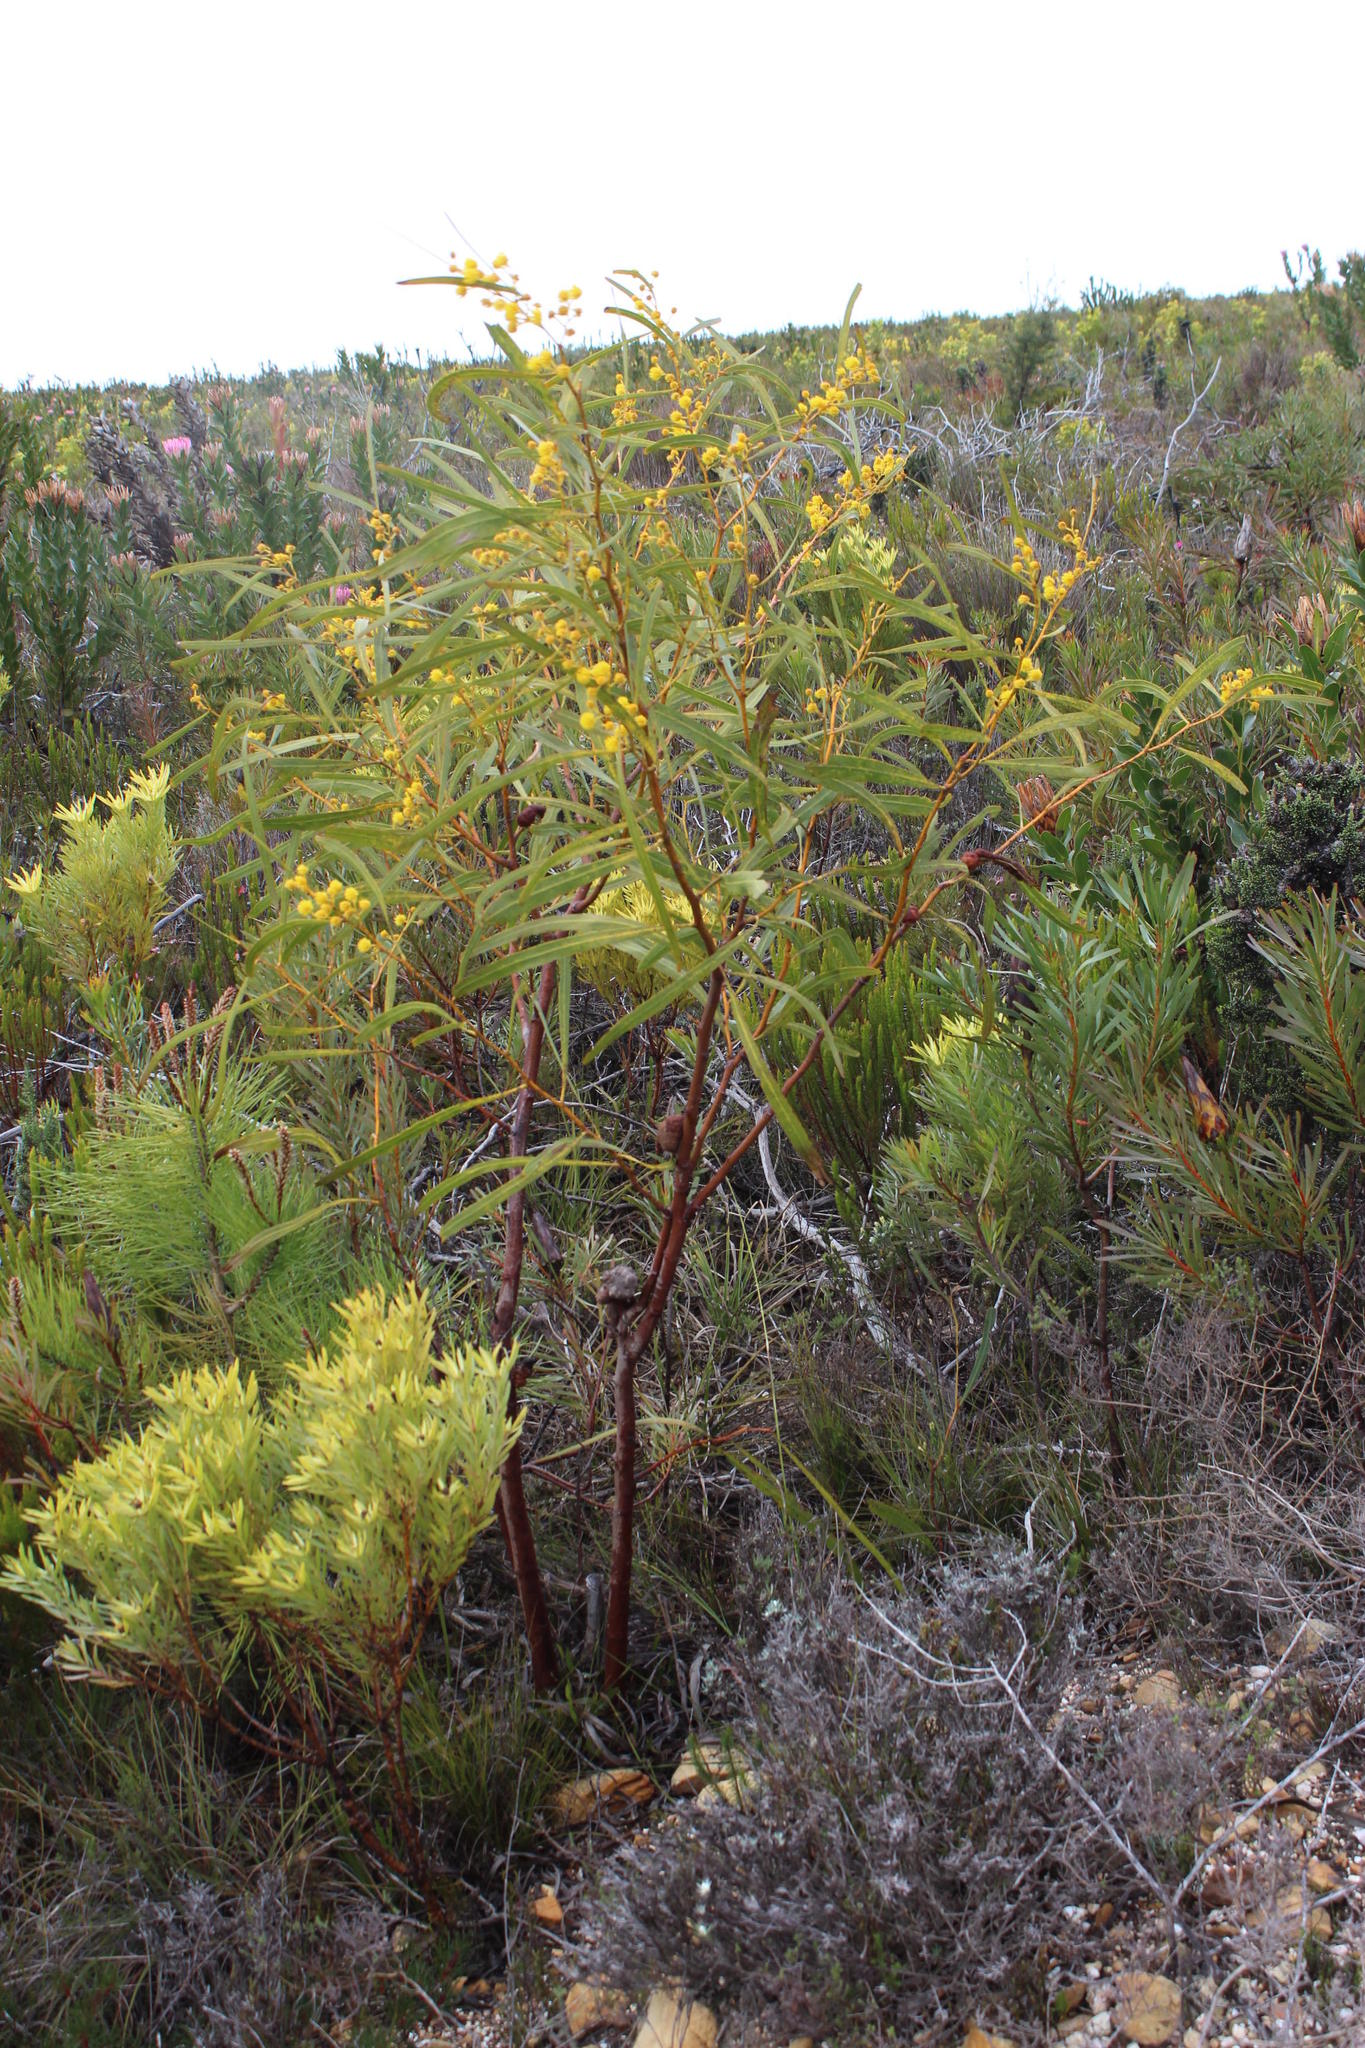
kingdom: Plantae
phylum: Tracheophyta
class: Magnoliopsida
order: Fabales
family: Fabaceae
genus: Acacia
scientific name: Acacia saligna
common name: Orange wattle
